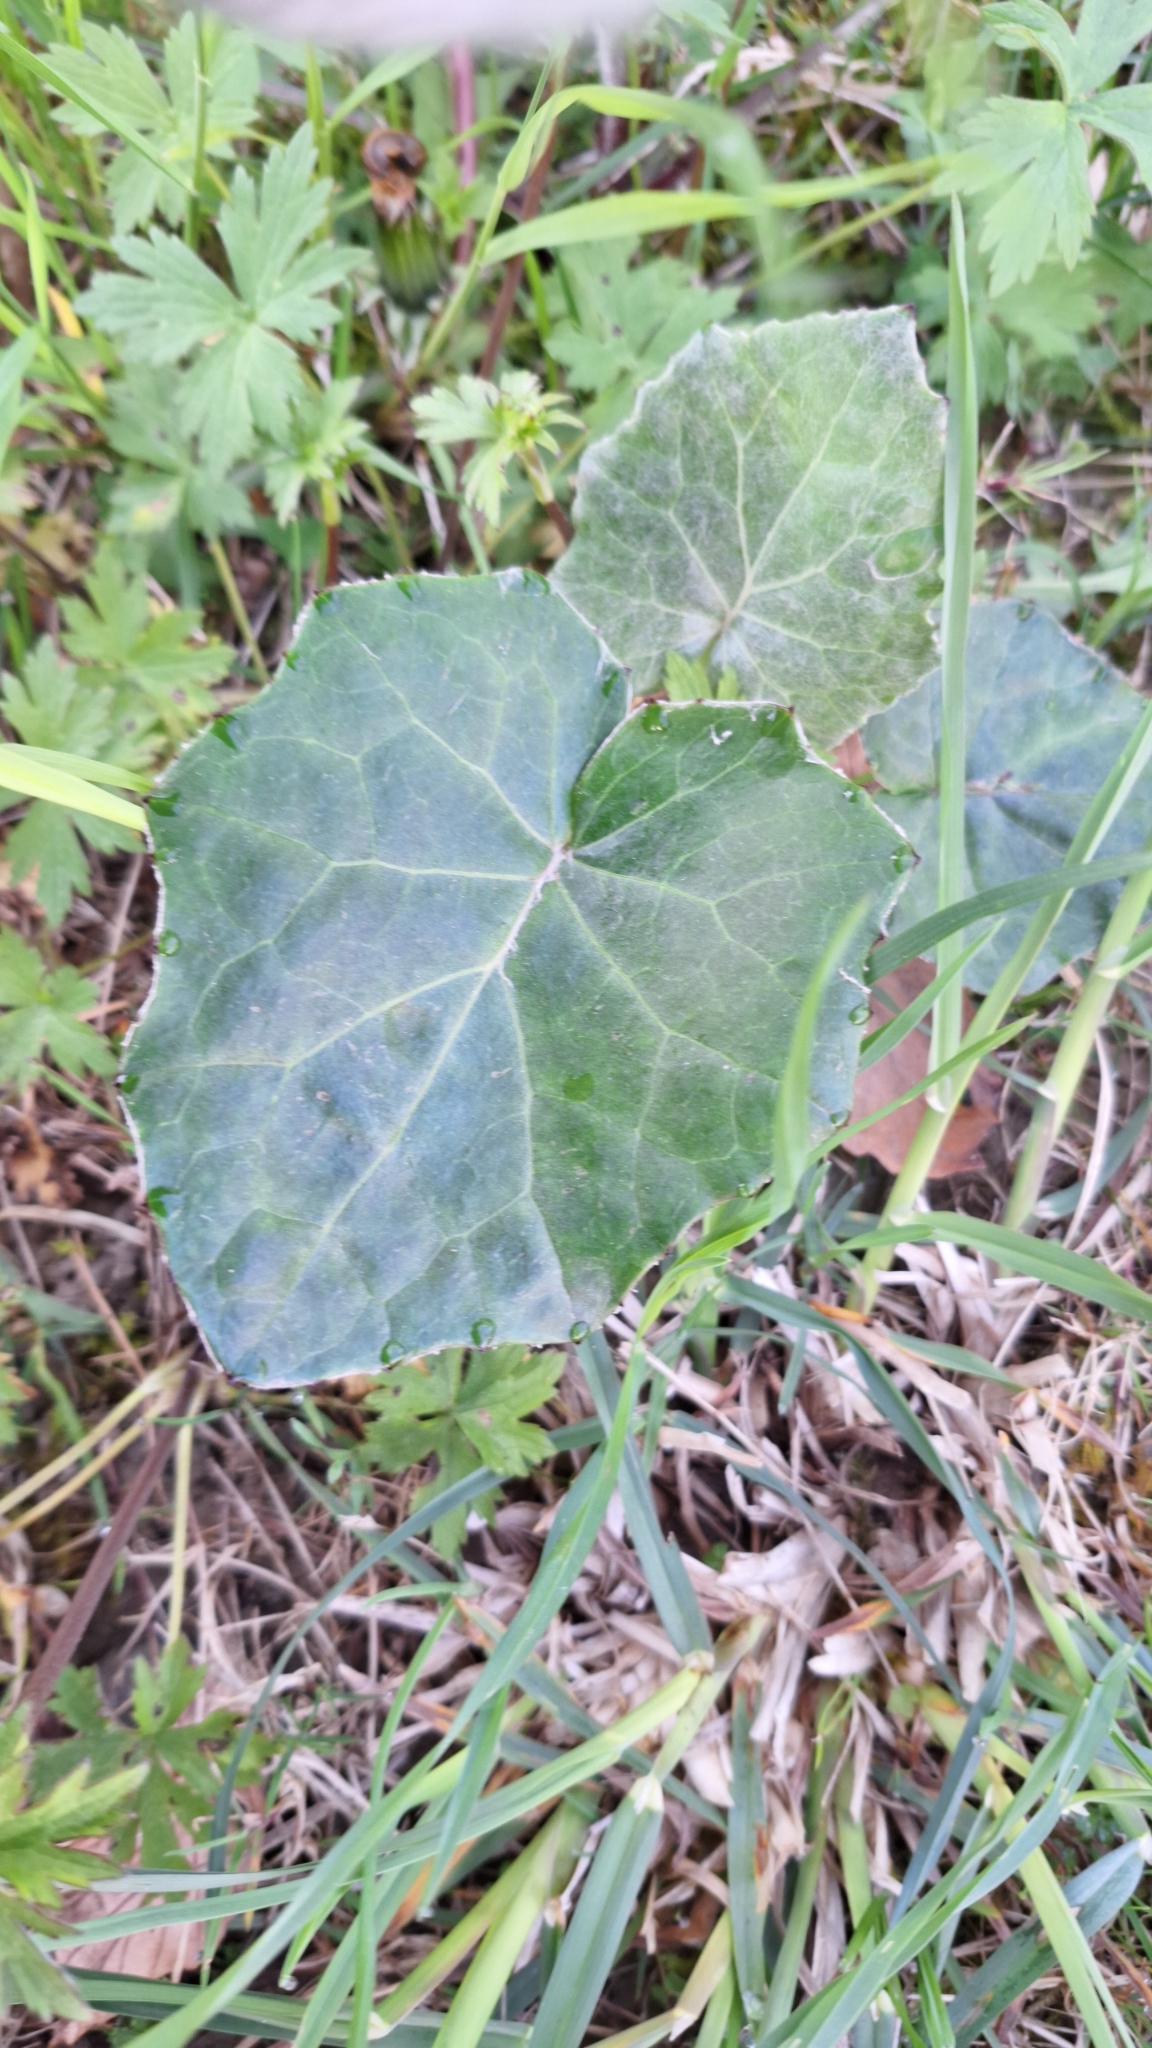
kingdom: Plantae
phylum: Tracheophyta
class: Magnoliopsida
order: Asterales
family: Asteraceae
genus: Tussilago
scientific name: Tussilago farfara
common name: Coltsfoot
